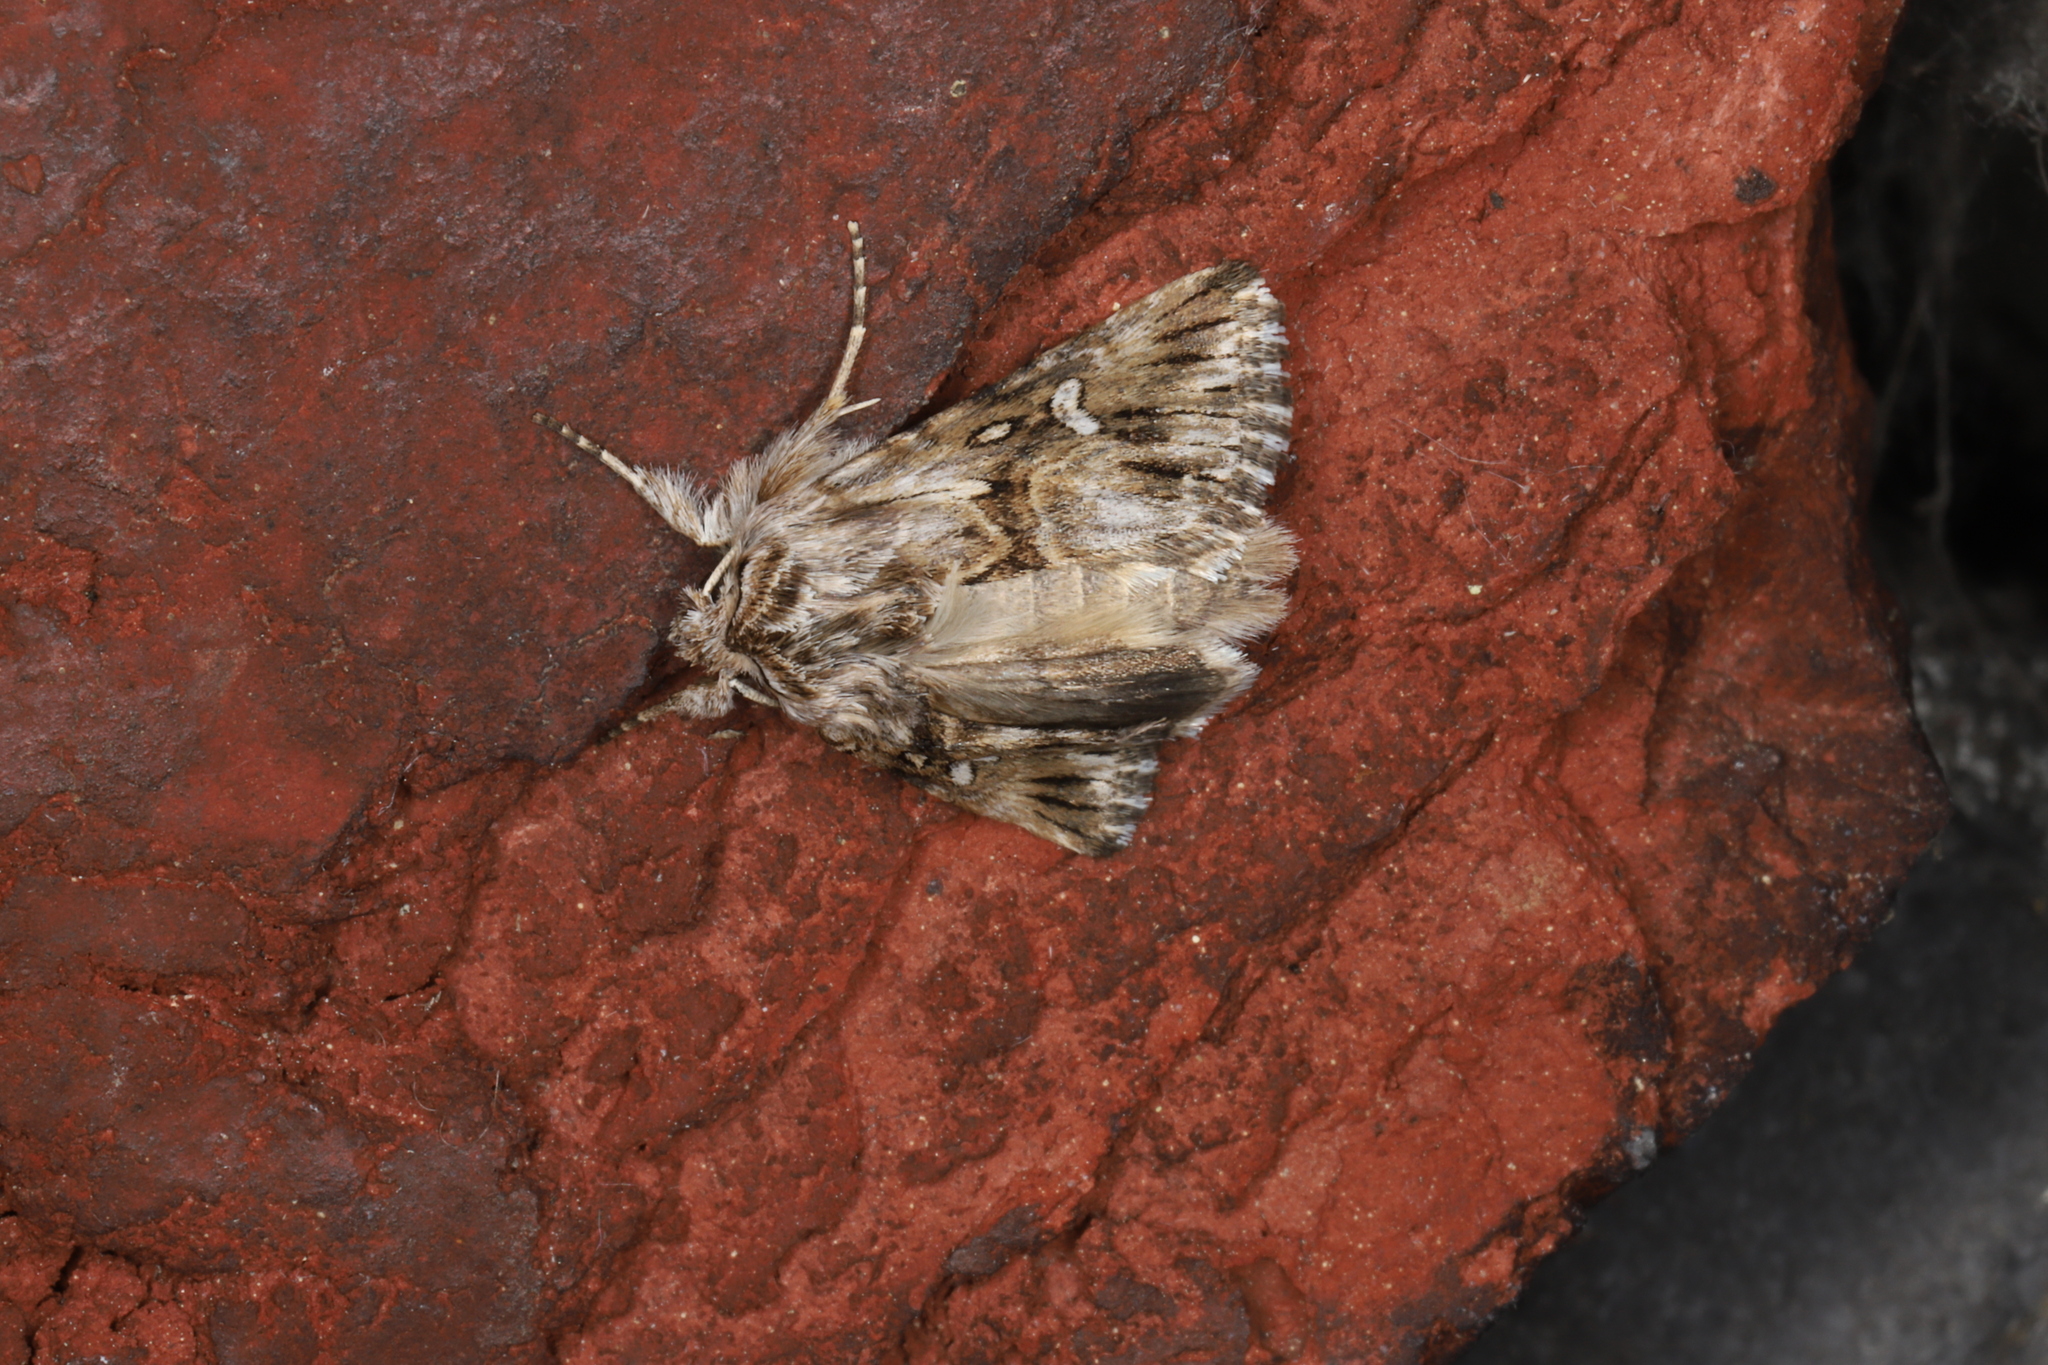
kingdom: Animalia
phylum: Arthropoda
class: Insecta
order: Lepidoptera
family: Noctuidae
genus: Calophasia
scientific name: Calophasia lunula
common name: Toadflax brocade
